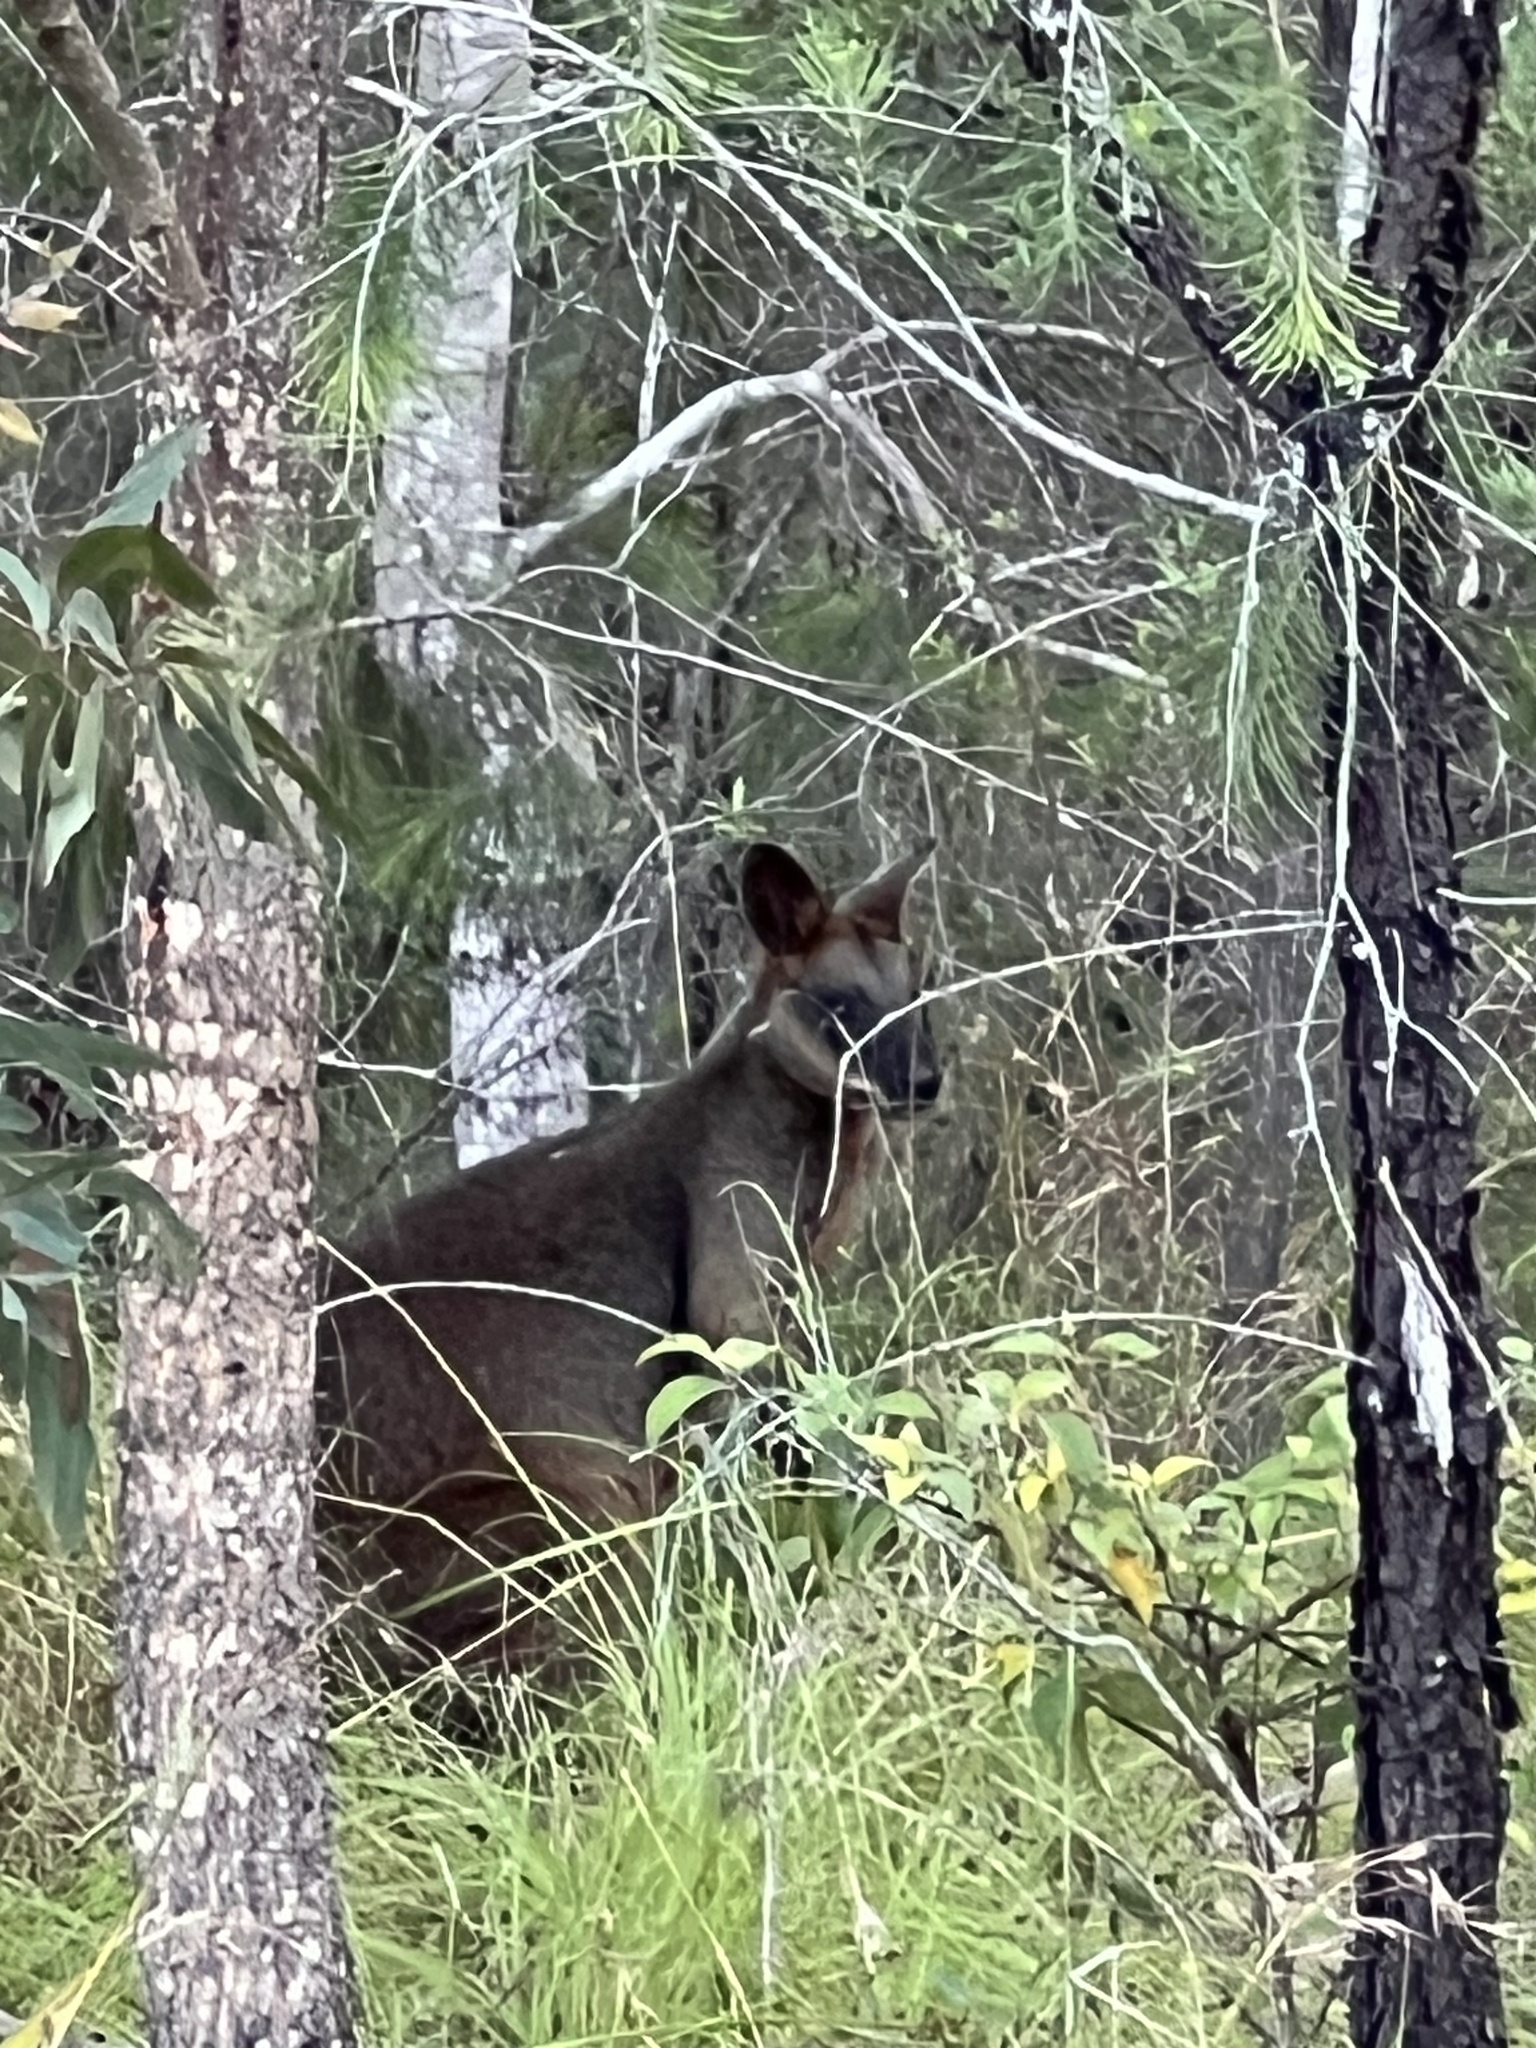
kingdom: Animalia
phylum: Chordata
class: Mammalia
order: Diprotodontia
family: Macropodidae
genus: Wallabia
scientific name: Wallabia bicolor
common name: Swamp wallaby
